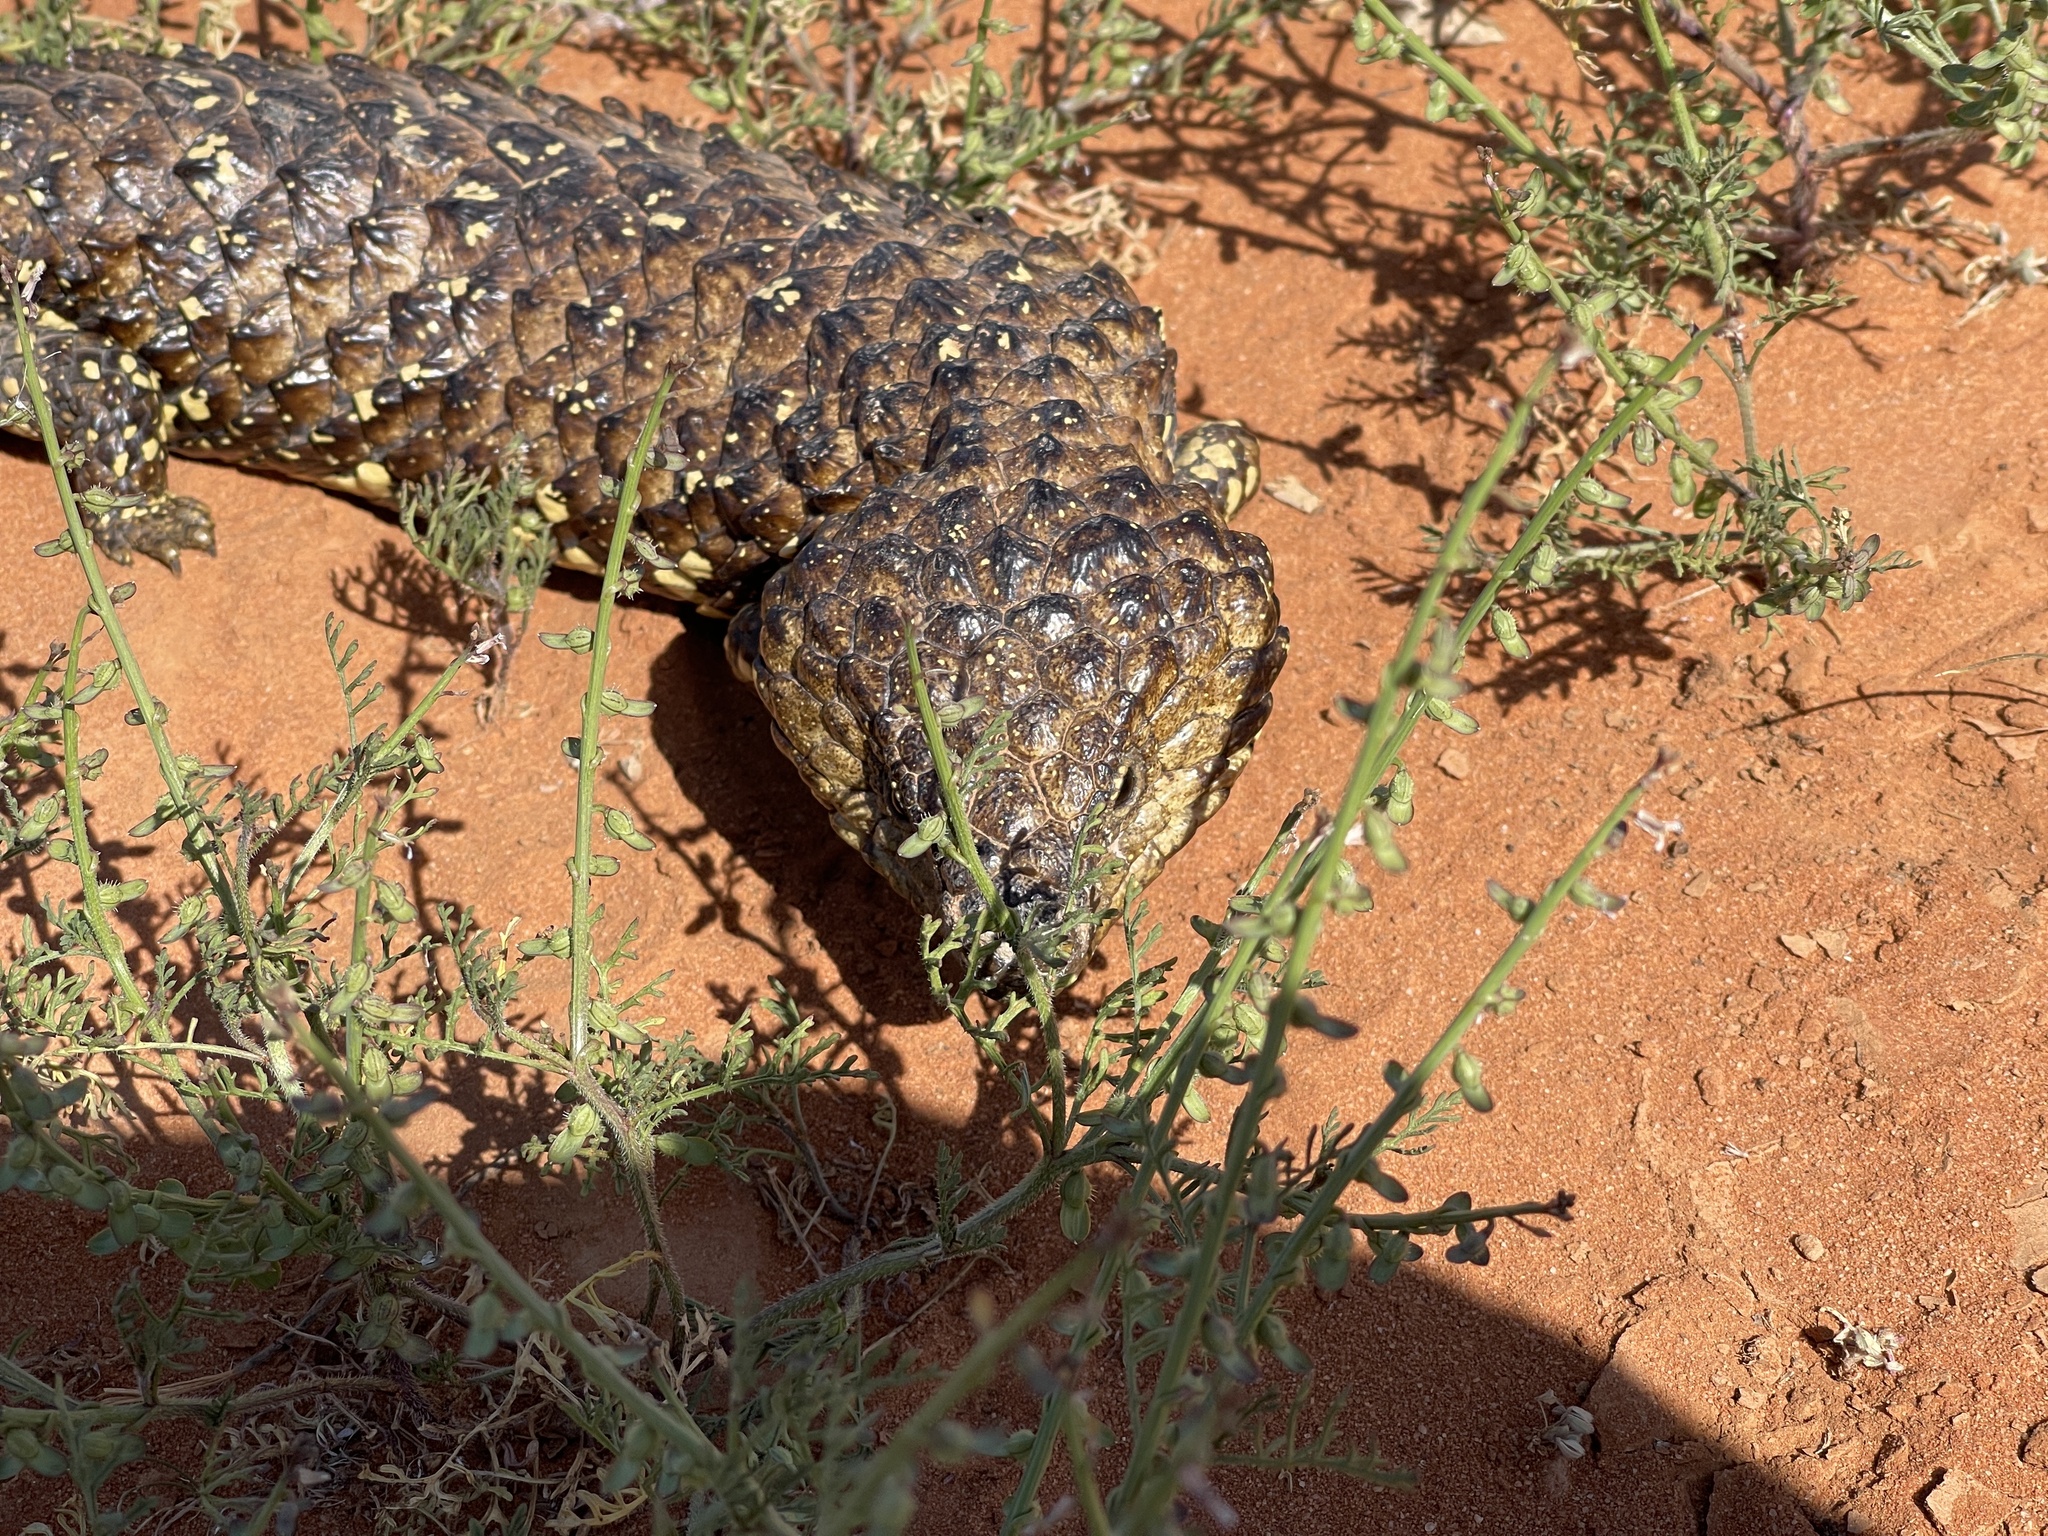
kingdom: Animalia
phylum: Chordata
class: Squamata
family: Scincidae
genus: Tiliqua
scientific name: Tiliqua rugosa
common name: Pinecone lizard
